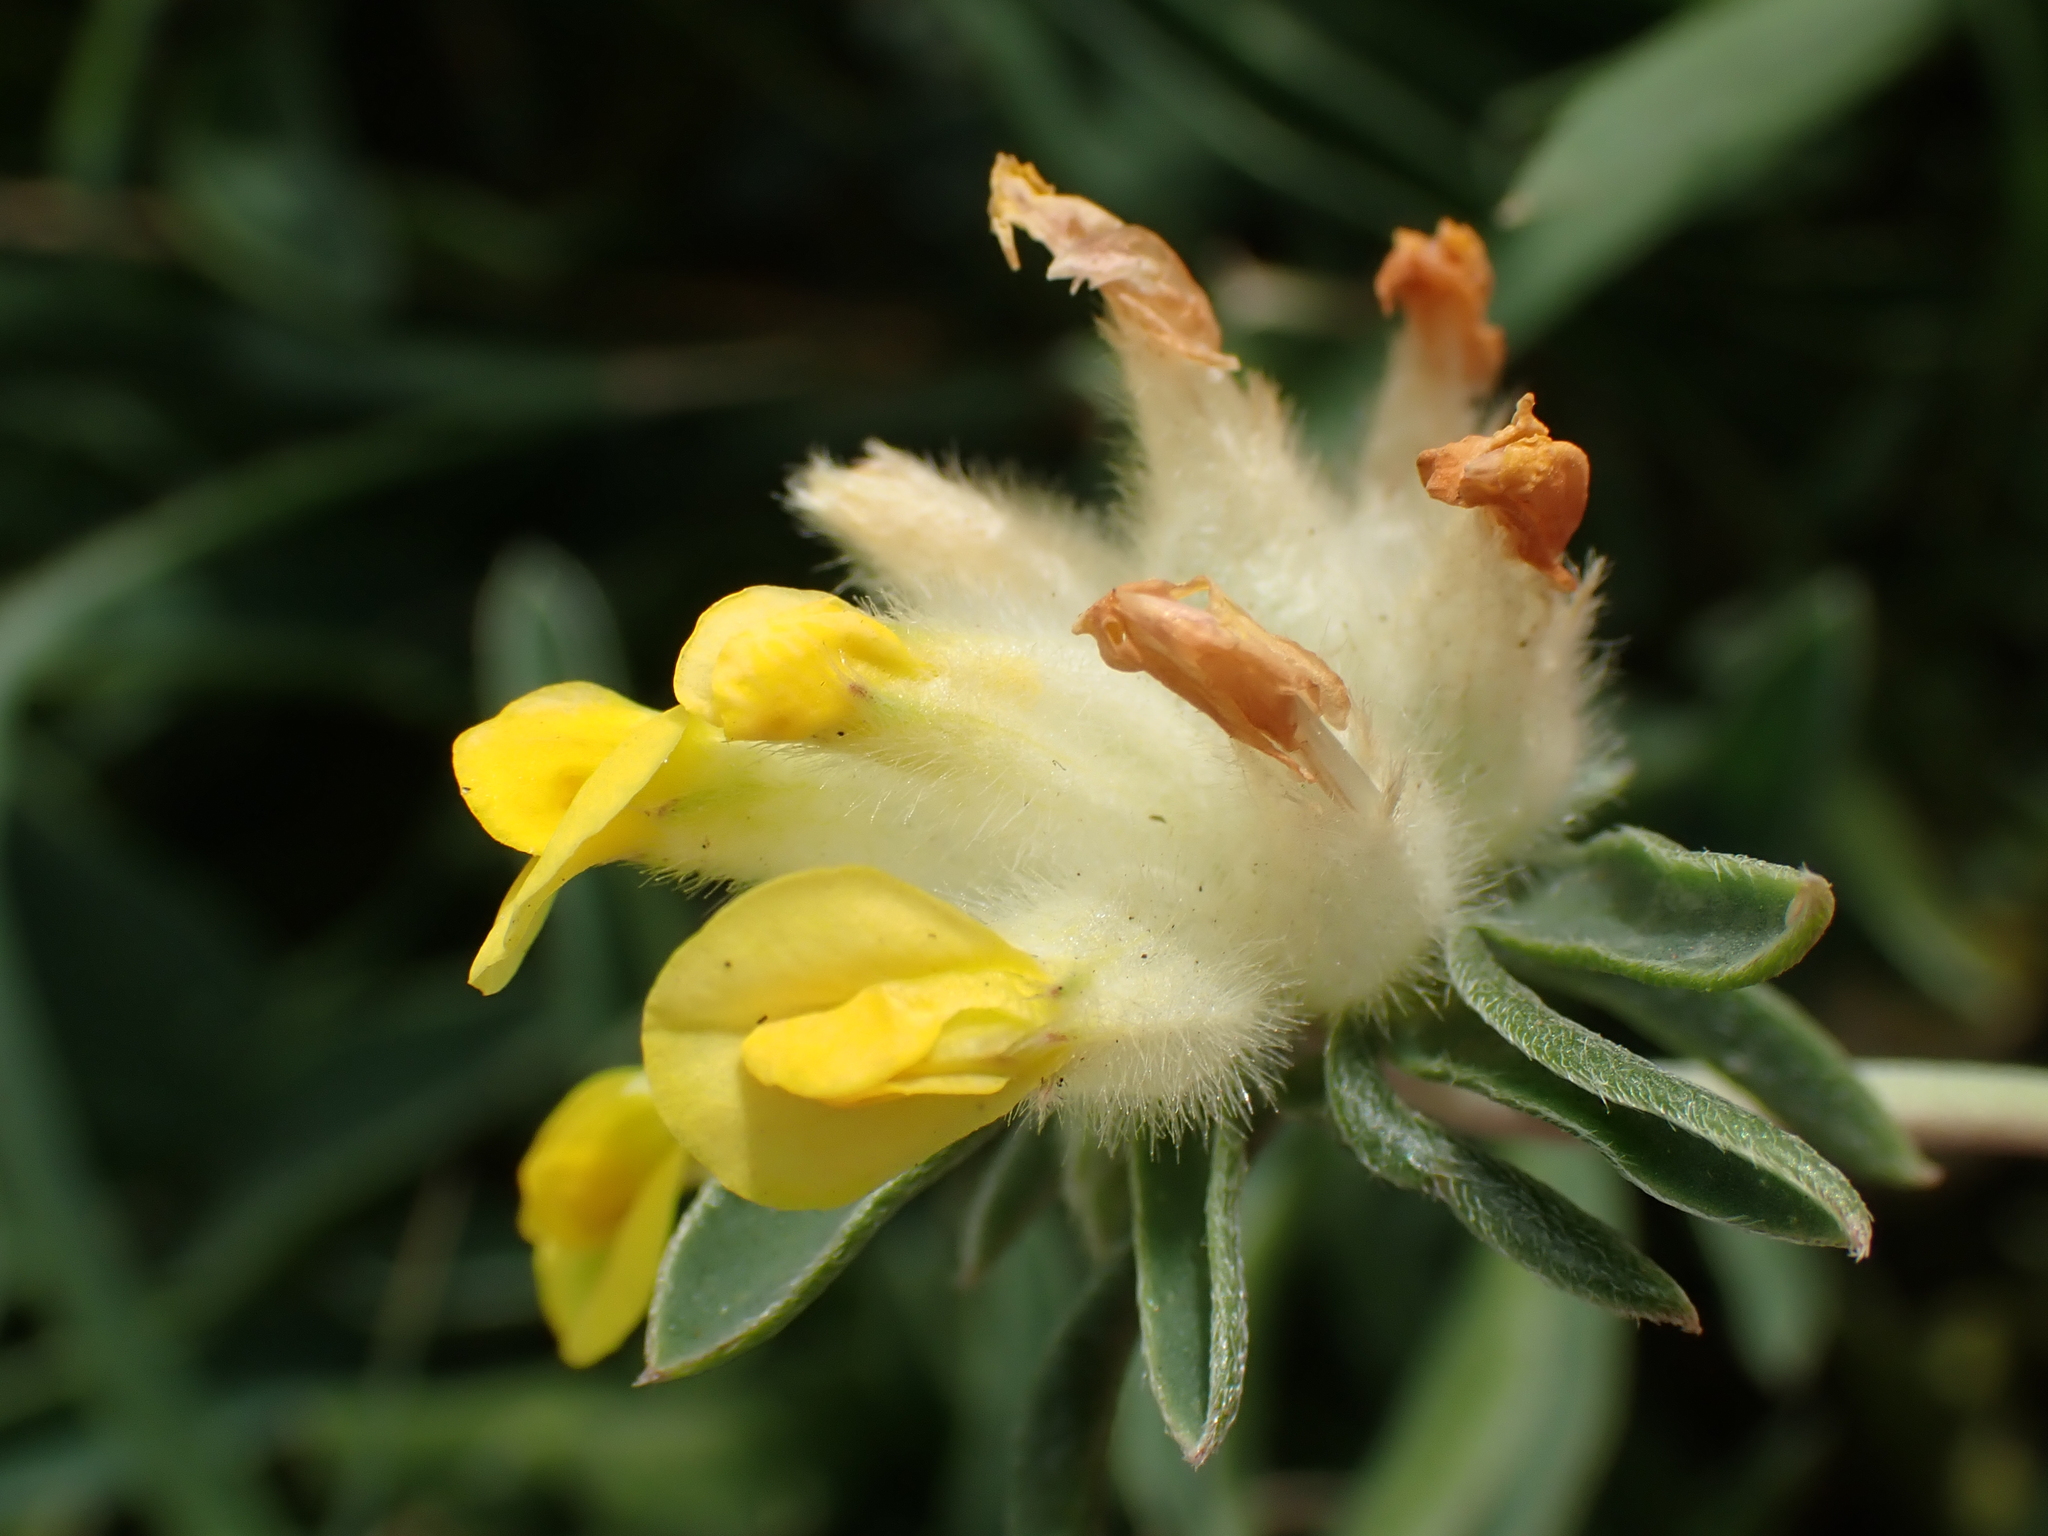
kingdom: Plantae
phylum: Tracheophyta
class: Magnoliopsida
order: Fabales
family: Fabaceae
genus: Anthyllis
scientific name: Anthyllis vulneraria
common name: Kidney vetch
